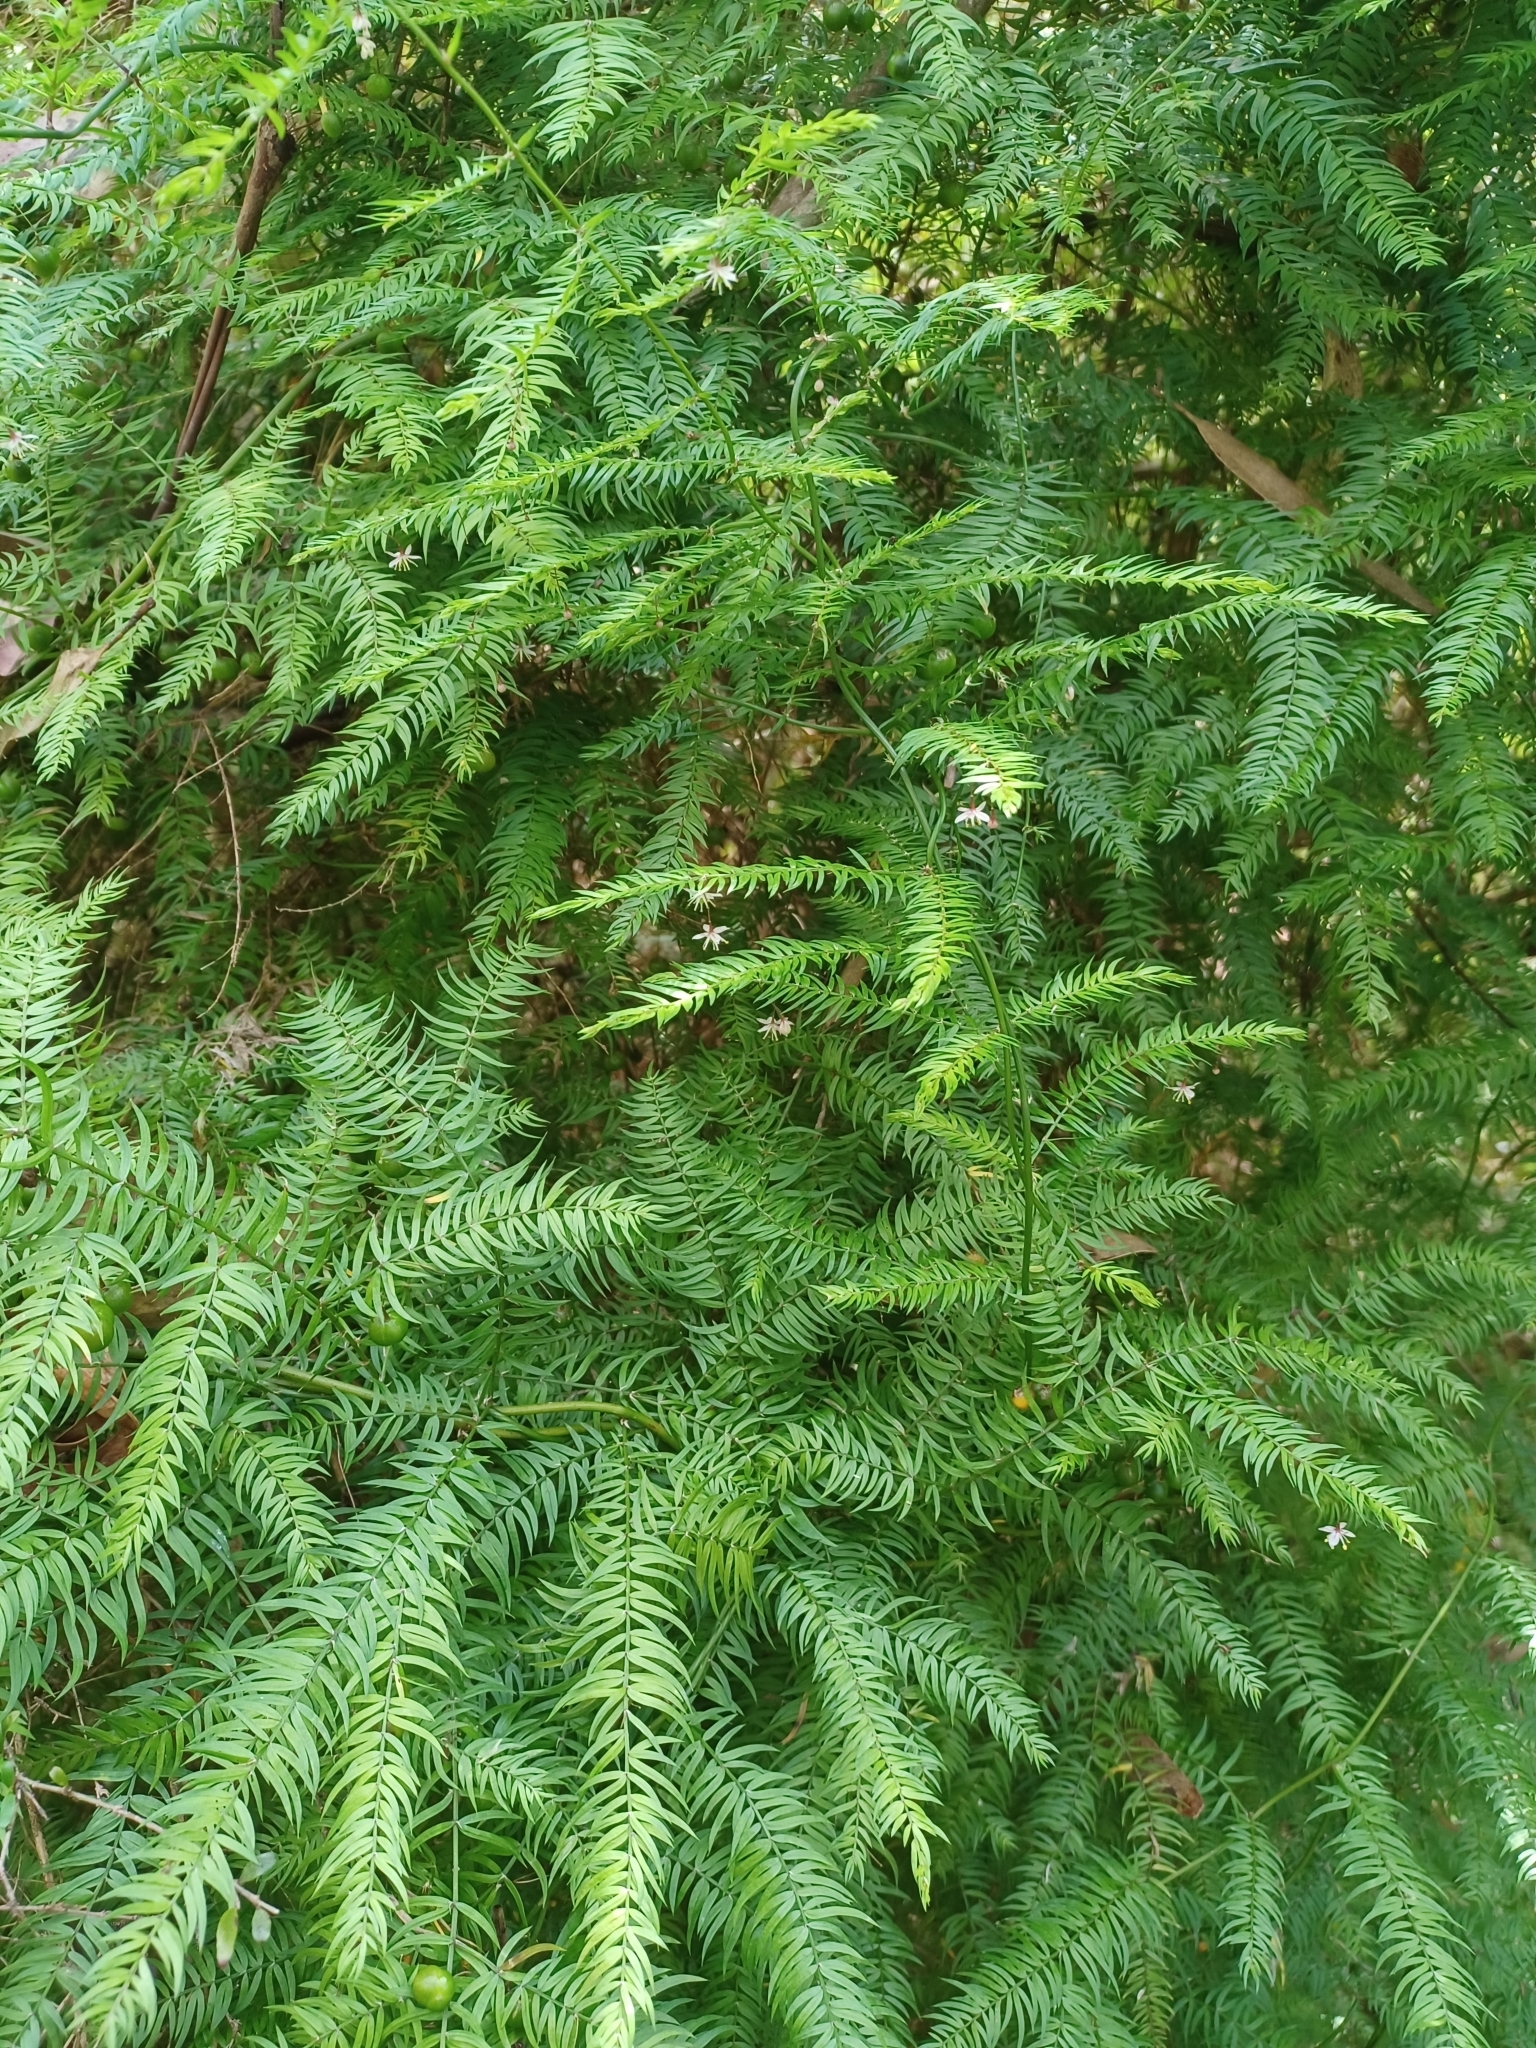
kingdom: Plantae
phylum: Tracheophyta
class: Liliopsida
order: Asparagales
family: Asparagaceae
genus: Asparagus
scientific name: Asparagus scandens
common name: Asparagus-fern
